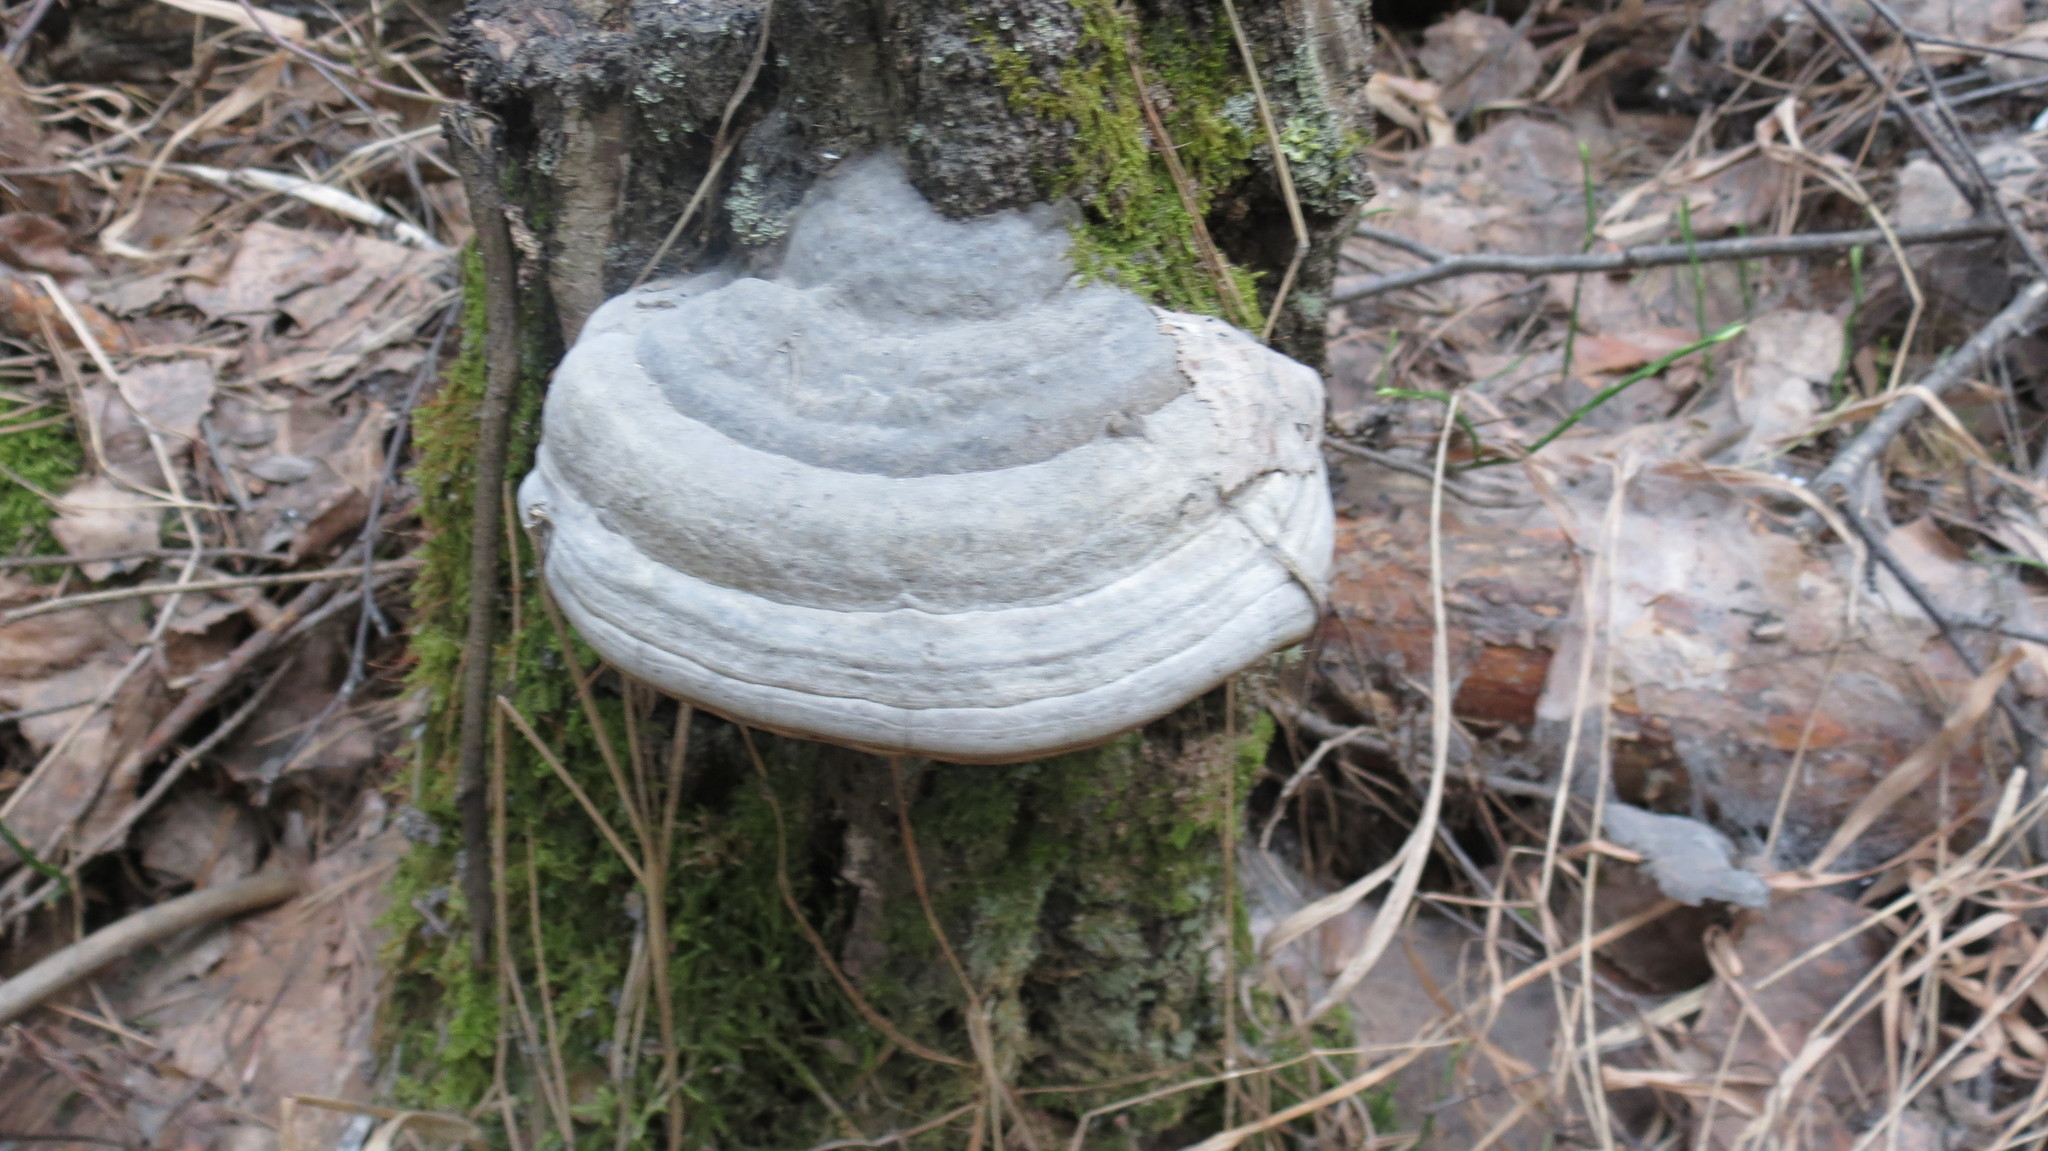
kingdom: Fungi
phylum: Basidiomycota
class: Agaricomycetes
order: Polyporales
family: Polyporaceae
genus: Fomes
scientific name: Fomes fomentarius
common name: Hoof fungus
